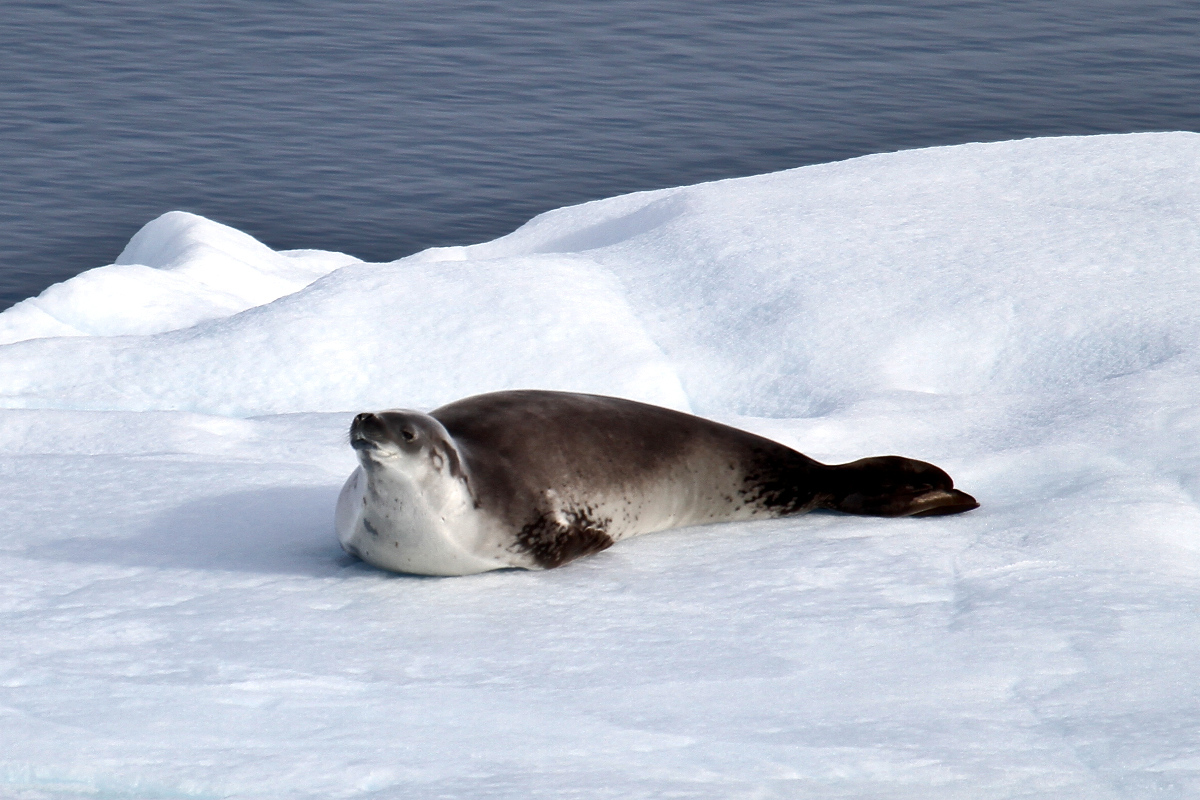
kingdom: Animalia
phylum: Chordata
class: Mammalia
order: Carnivora
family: Phocidae
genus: Lobodon
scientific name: Lobodon carcinophaga
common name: Crabeater seal
